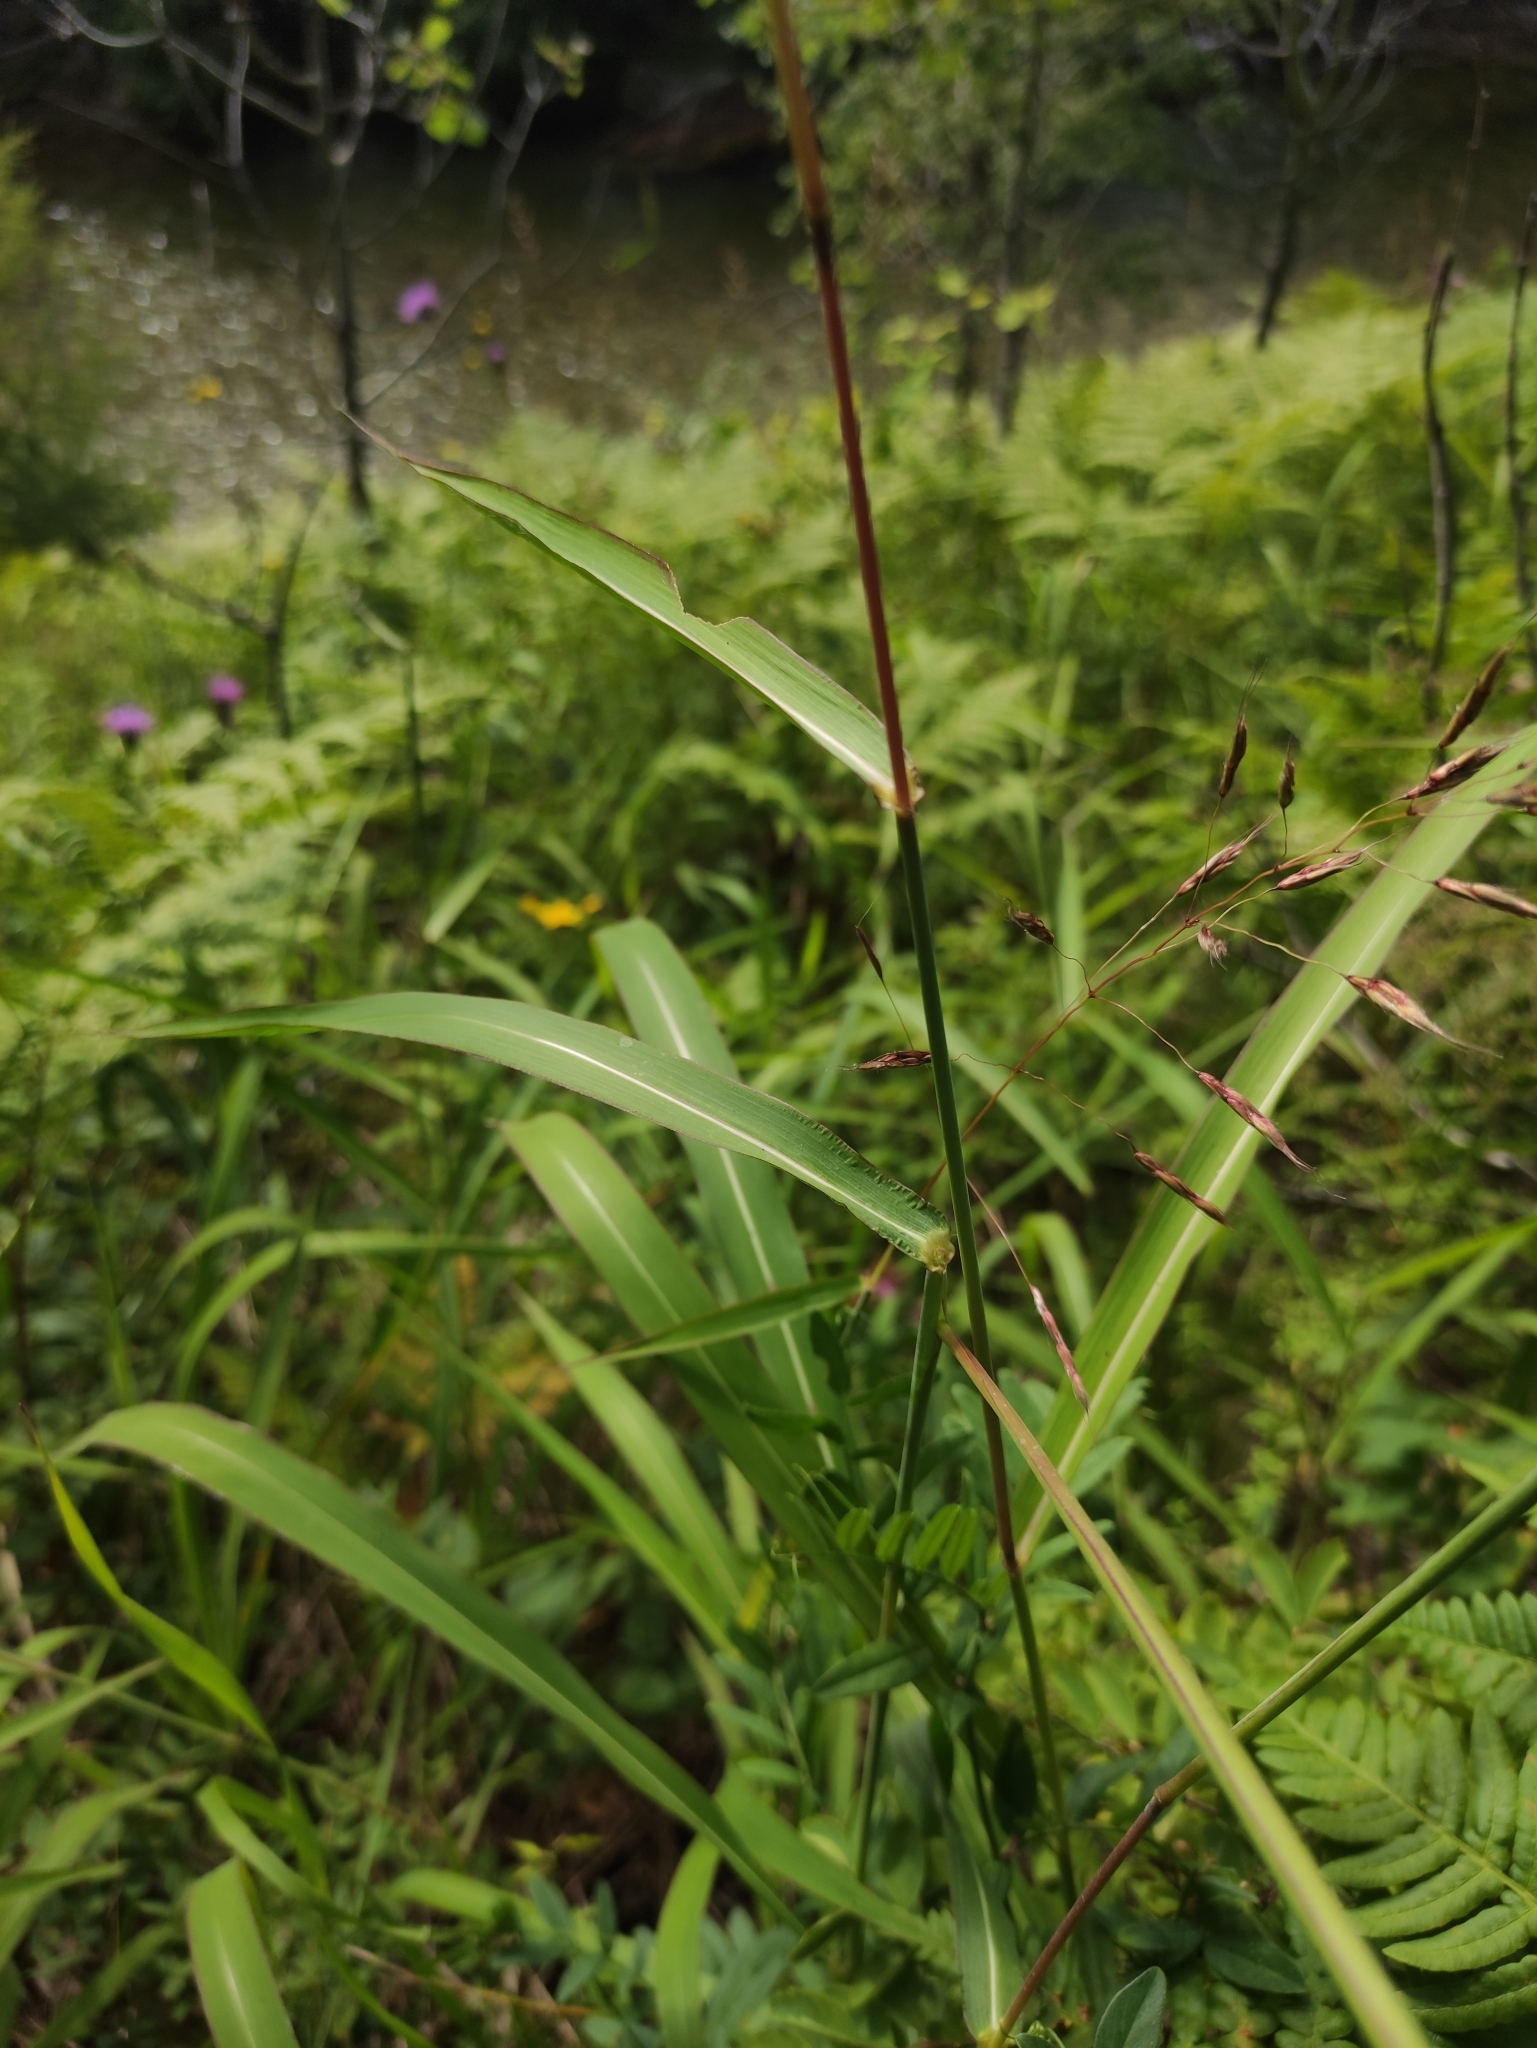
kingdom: Plantae
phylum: Tracheophyta
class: Liliopsida
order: Poales
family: Poaceae
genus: Spodiopogon
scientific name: Spodiopogon sibiricus
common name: Siberian graybeard
